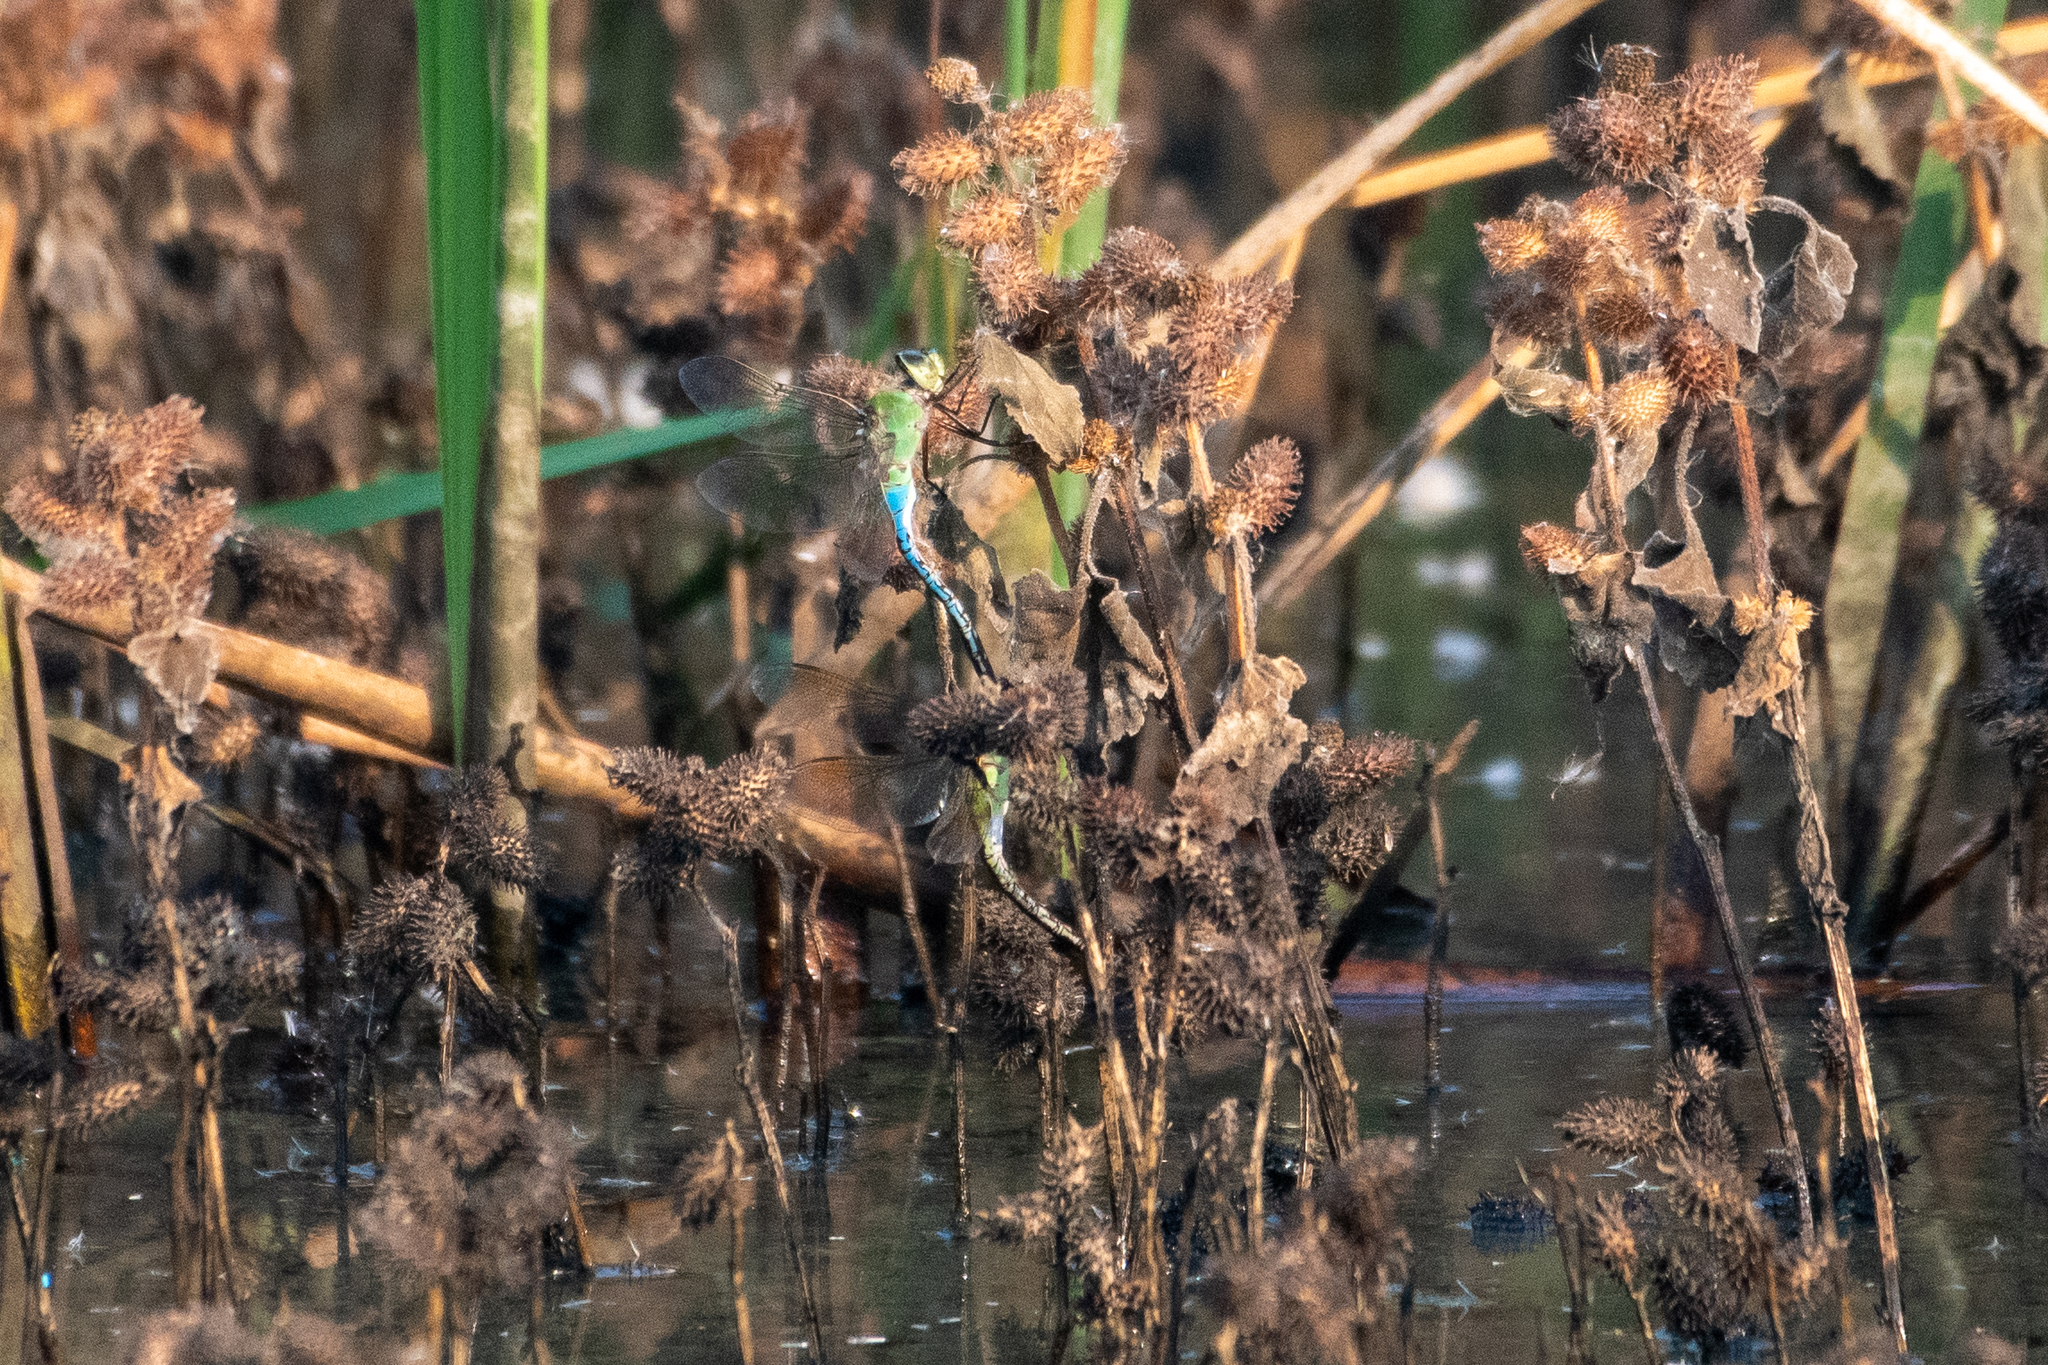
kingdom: Animalia
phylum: Arthropoda
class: Insecta
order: Odonata
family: Aeshnidae
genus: Anax
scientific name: Anax junius
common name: Common green darner
